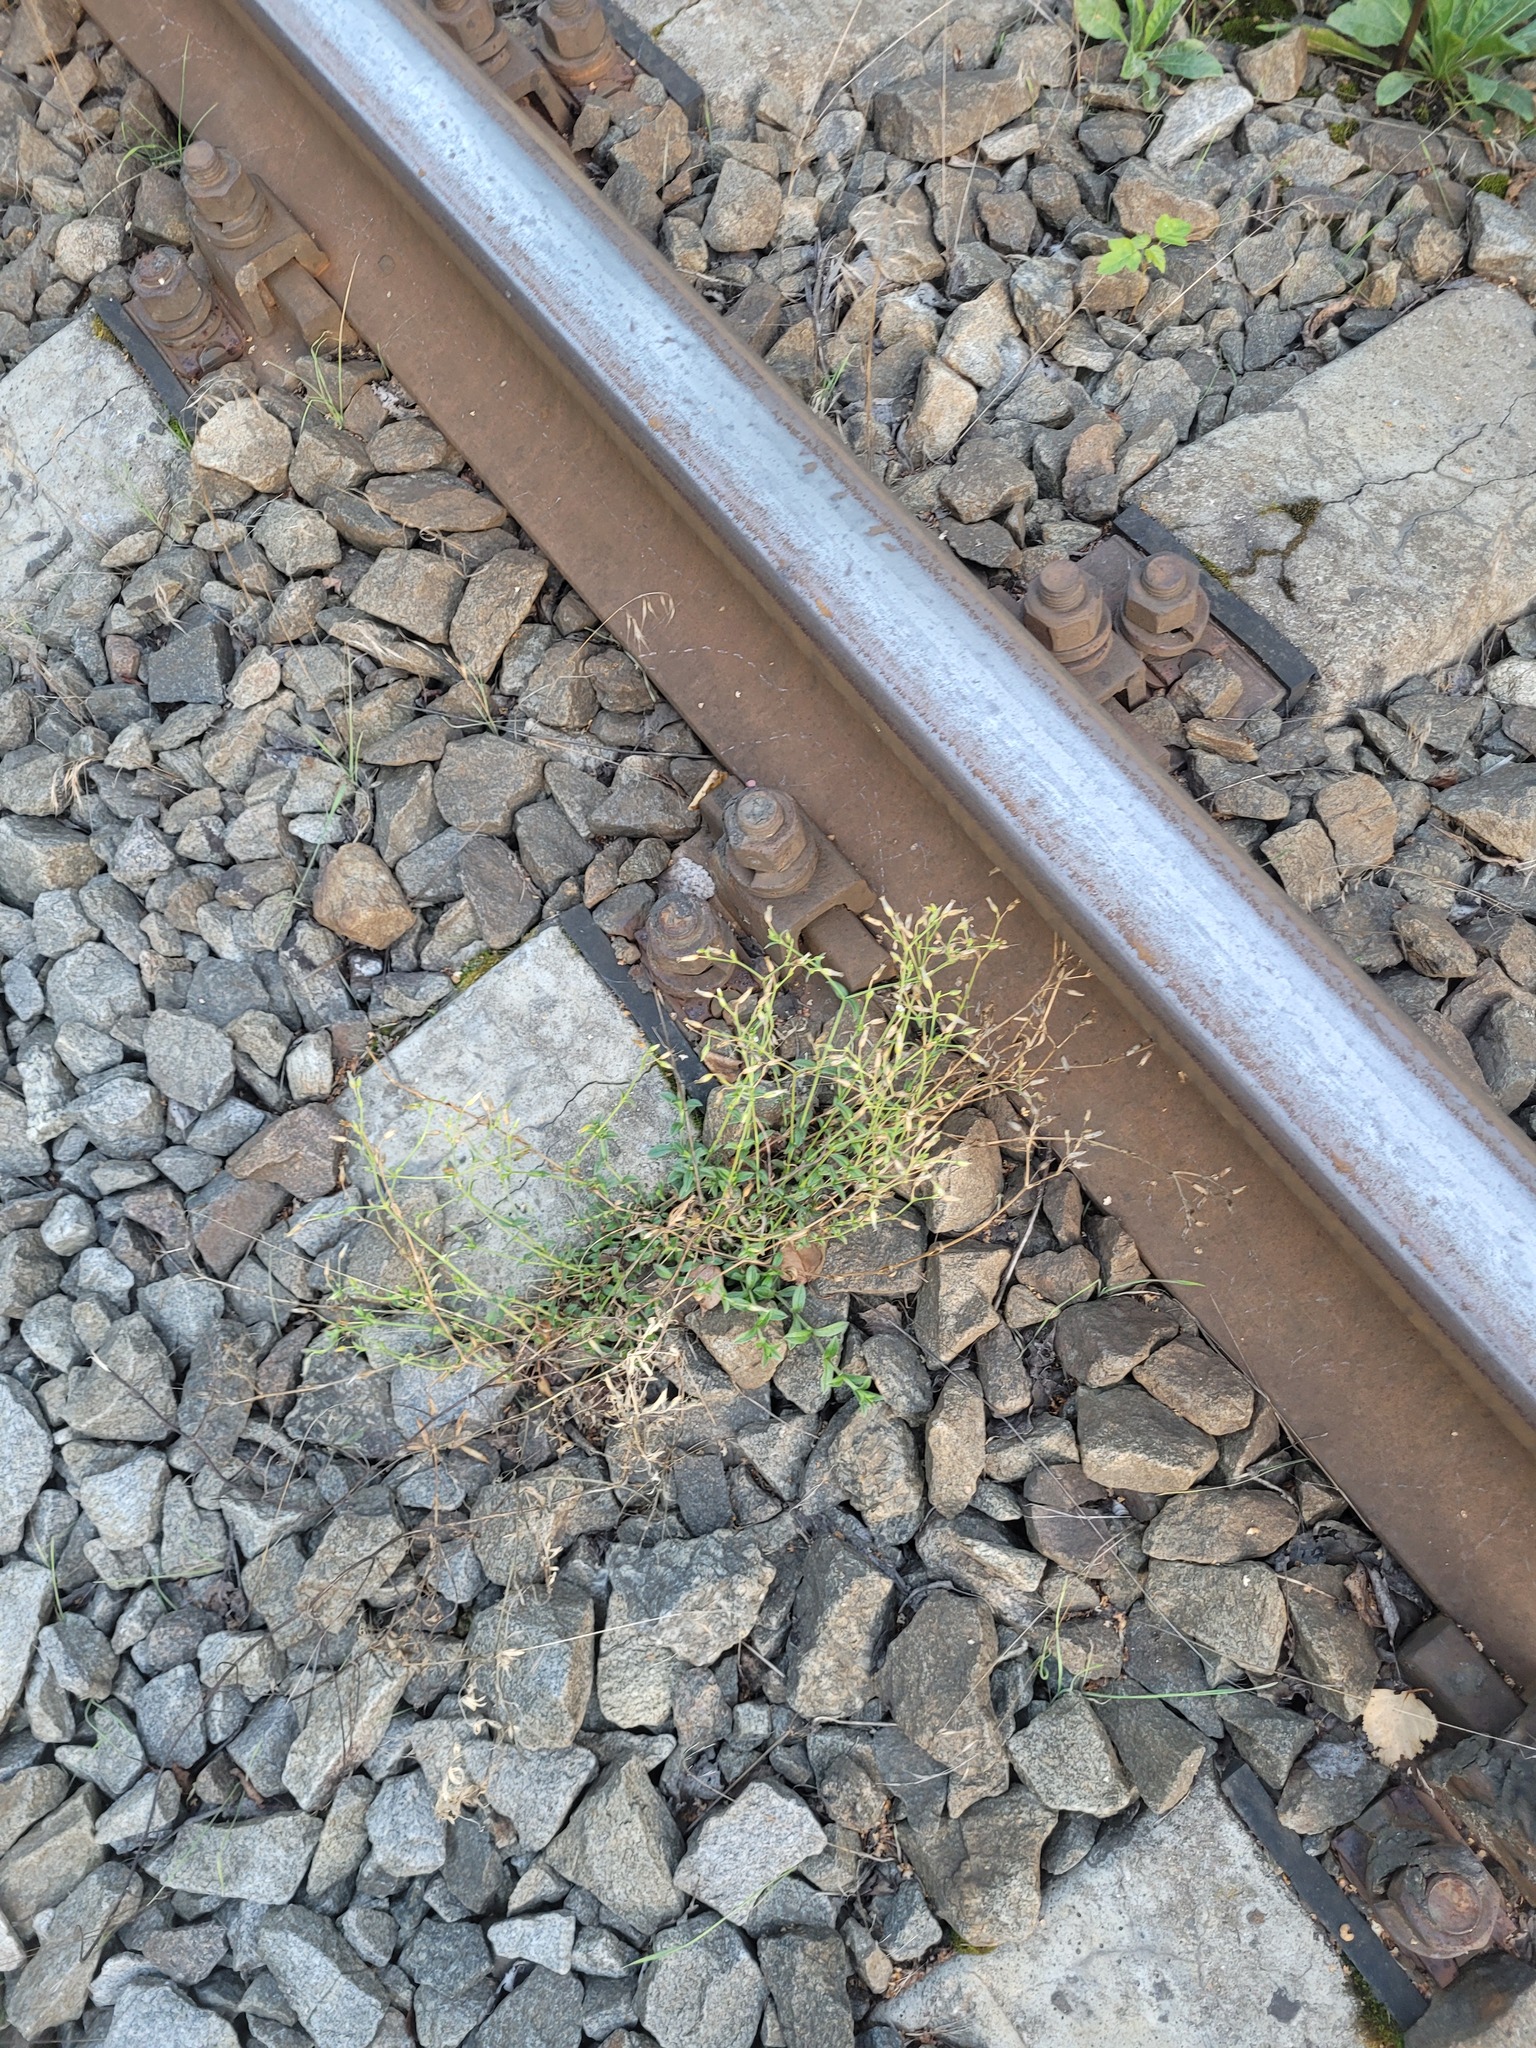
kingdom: Plantae
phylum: Tracheophyta
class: Magnoliopsida
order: Caryophyllales
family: Caryophyllaceae
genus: Cerastium
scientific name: Cerastium holosteoides
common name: Big chickweed
